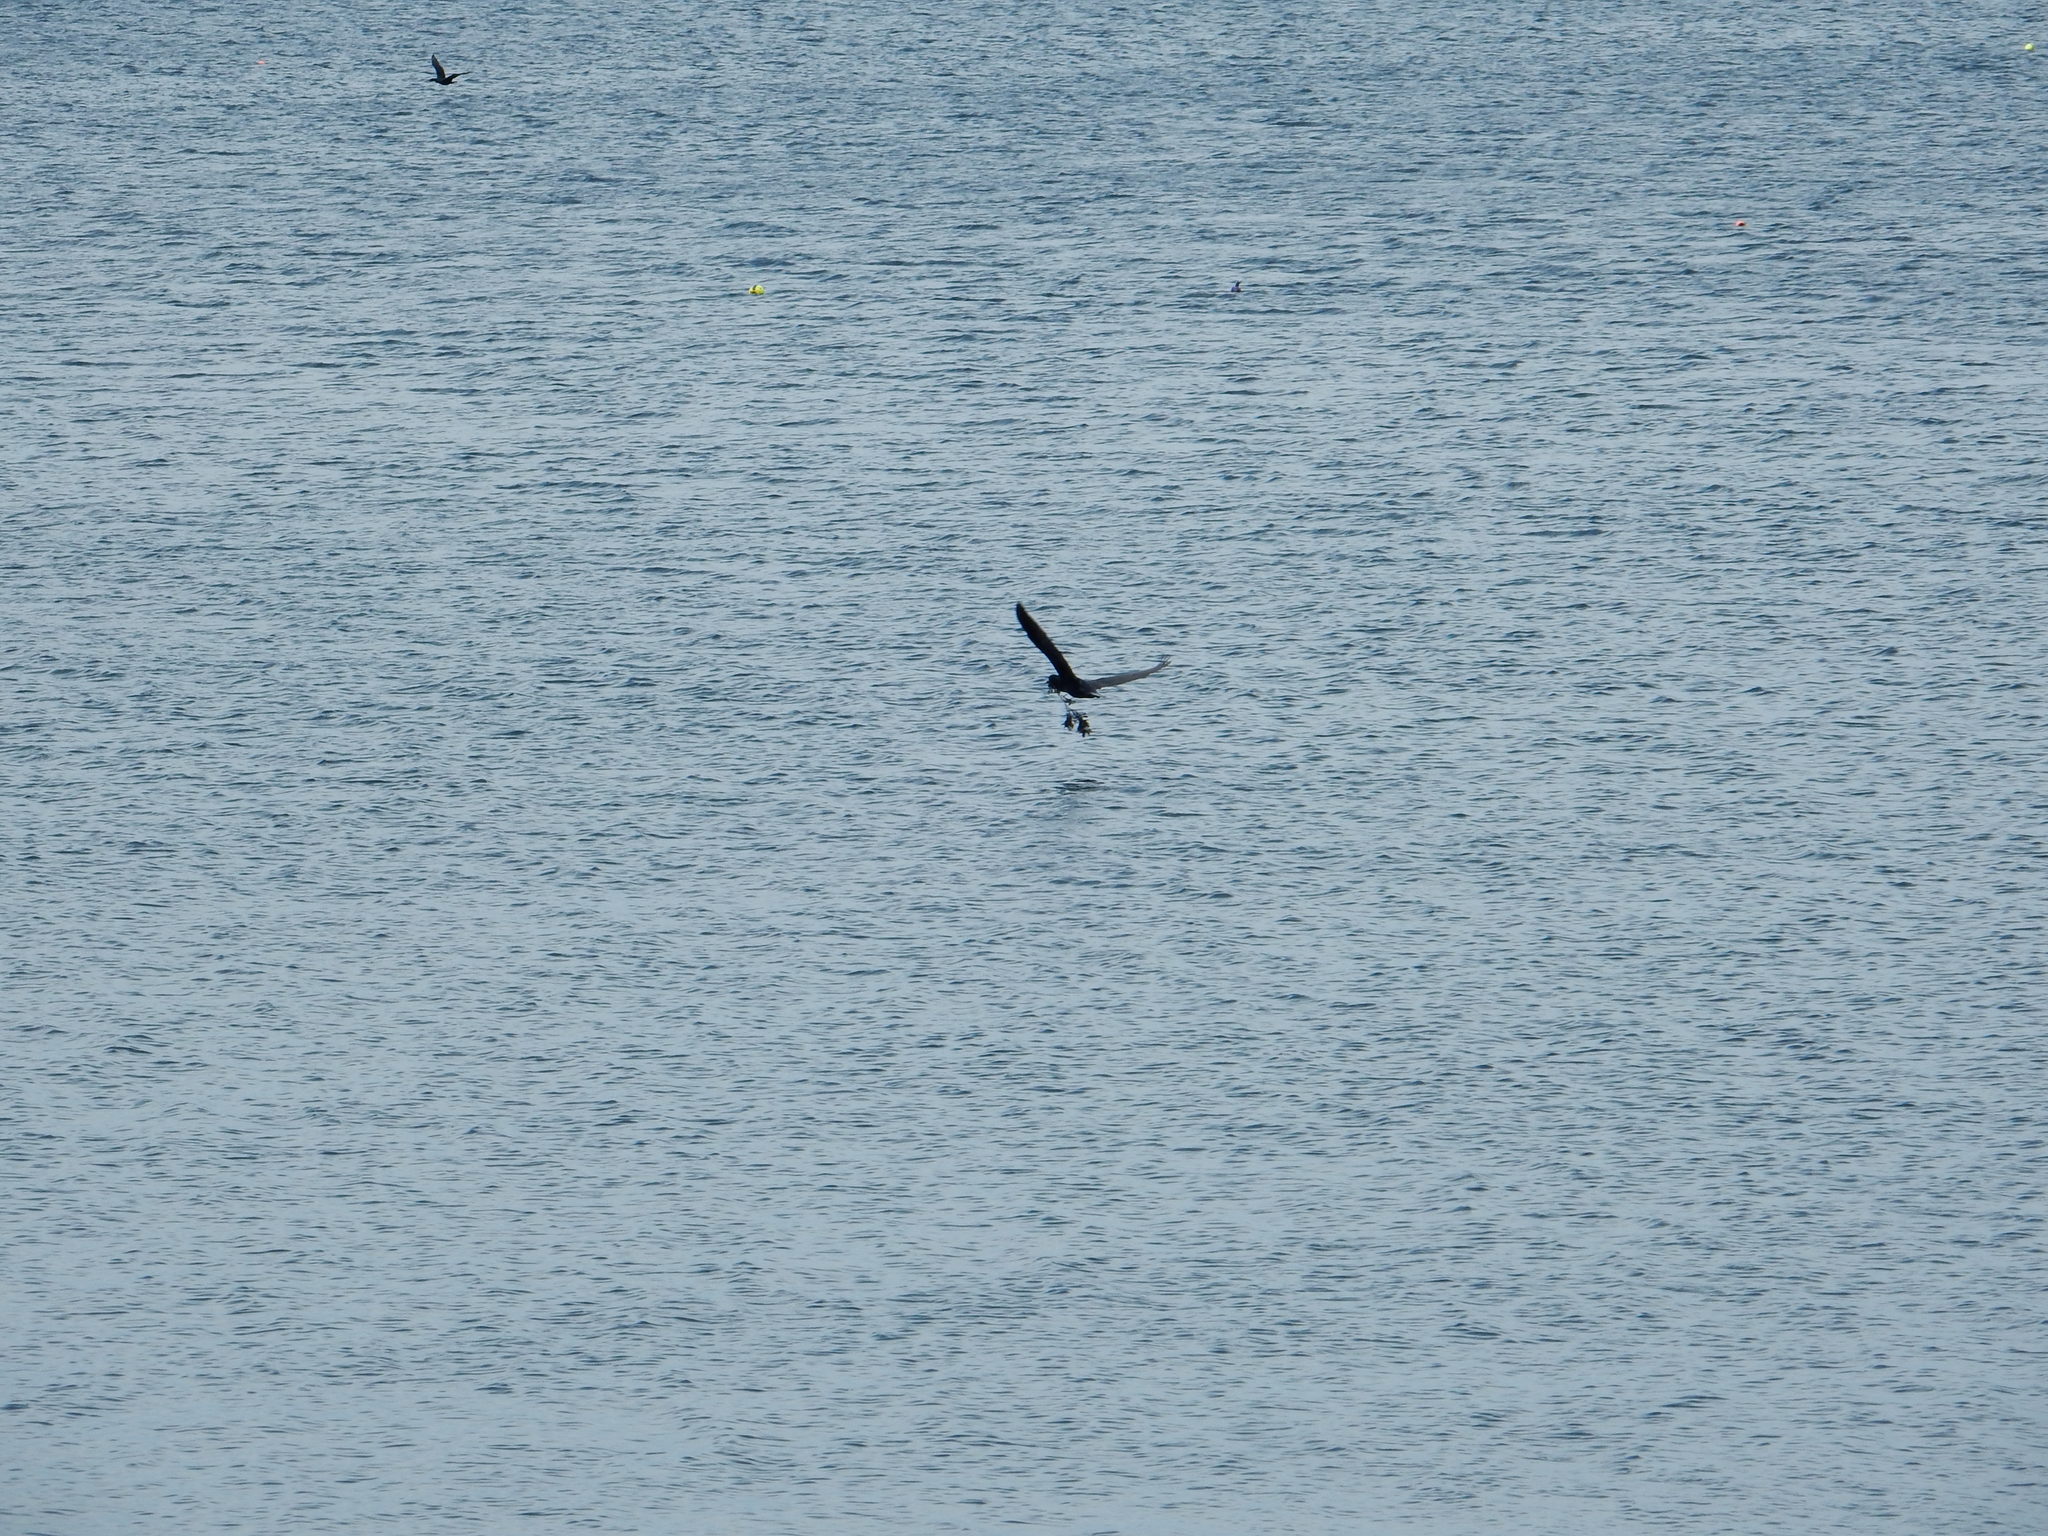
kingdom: Animalia
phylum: Chordata
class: Aves
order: Suliformes
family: Phalacrocoracidae
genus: Phalacrocorax
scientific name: Phalacrocorax auritus
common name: Double-crested cormorant
